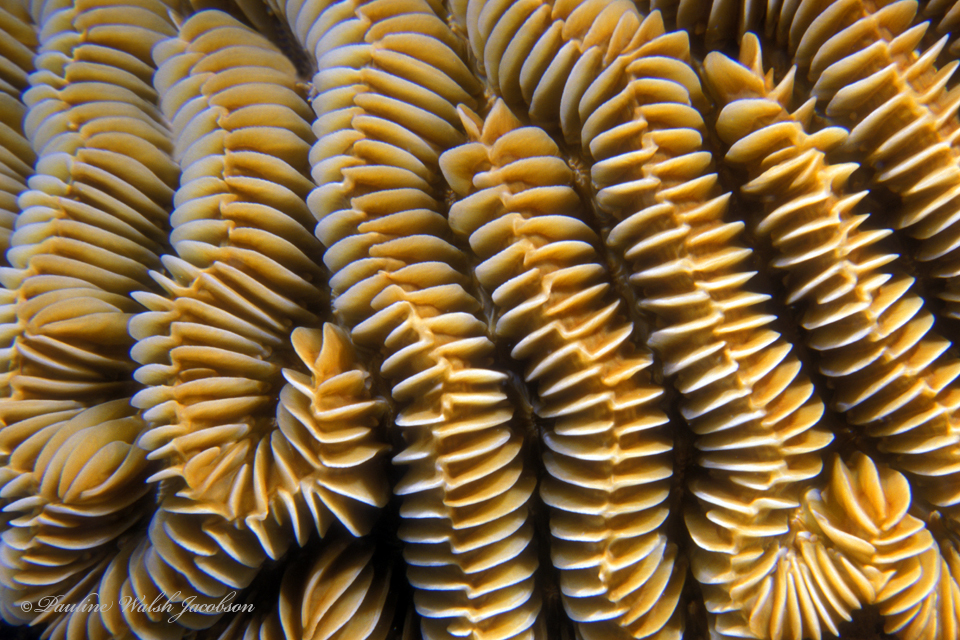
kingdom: Animalia
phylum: Cnidaria
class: Anthozoa
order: Scleractinia
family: Meandrinidae
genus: Meandrina
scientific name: Meandrina meandrites
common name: Maze coral
